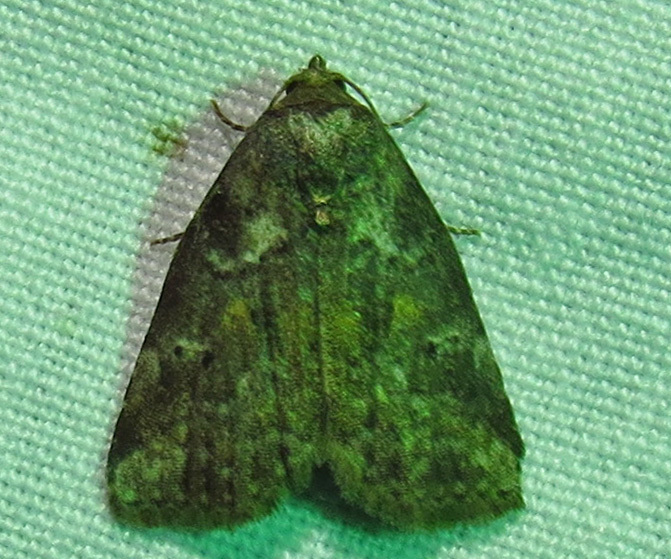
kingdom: Animalia
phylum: Arthropoda
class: Insecta
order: Lepidoptera
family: Erebidae
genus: Hyperstrotia
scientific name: Hyperstrotia nana
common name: White-lined graylet
